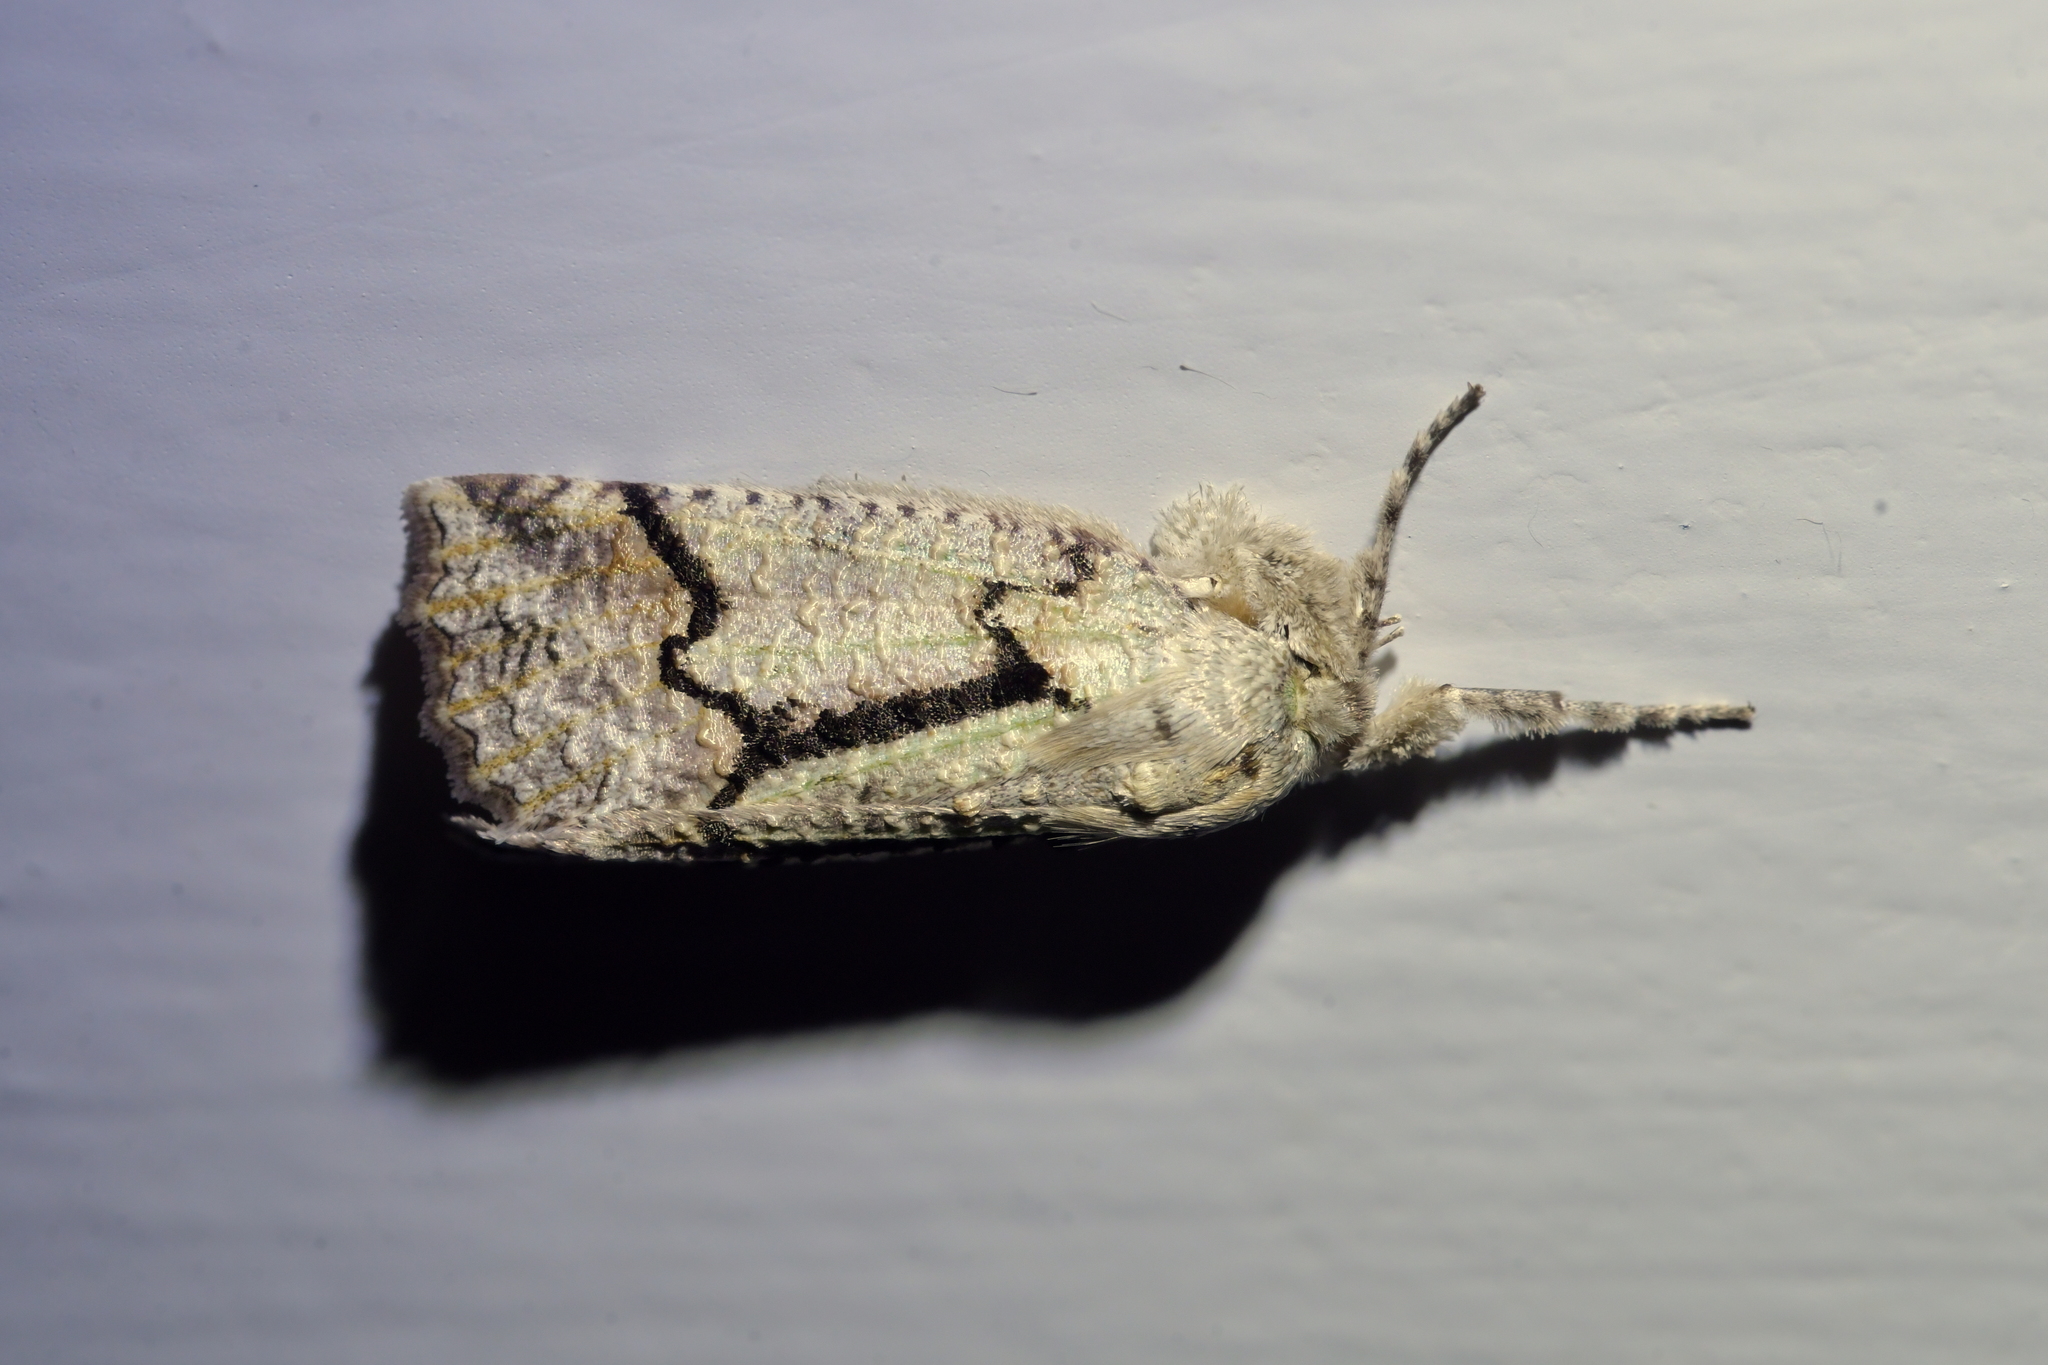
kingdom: Animalia
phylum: Arthropoda
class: Insecta
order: Lepidoptera
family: Geometridae
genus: Declana
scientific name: Declana floccosa
